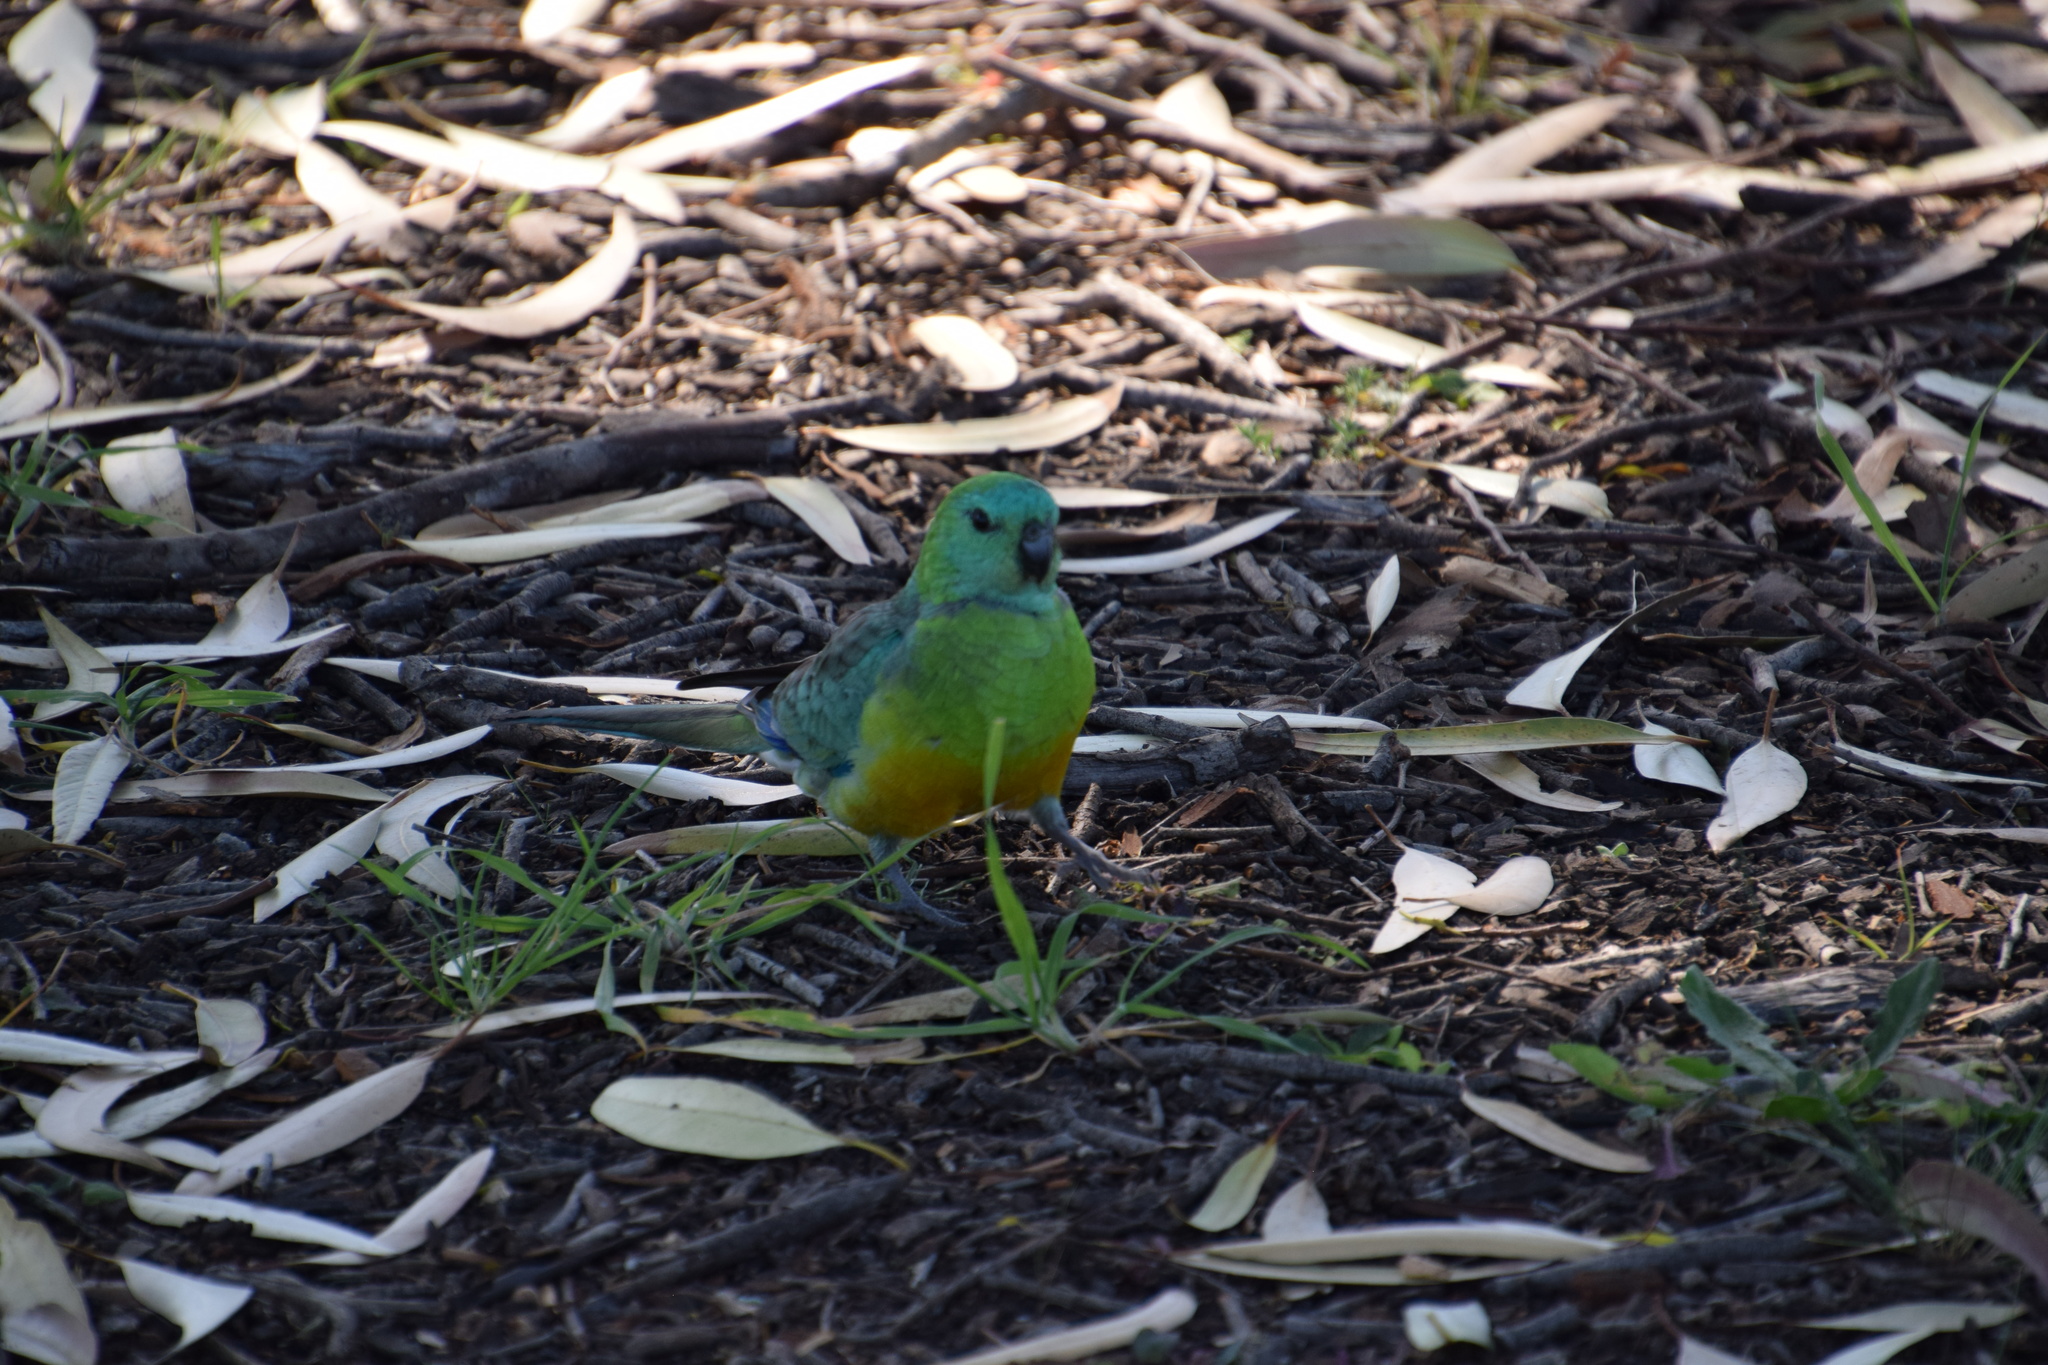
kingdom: Animalia
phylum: Chordata
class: Aves
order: Psittaciformes
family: Psittacidae
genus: Psephotus
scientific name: Psephotus haematonotus
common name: Red-rumped parrot
